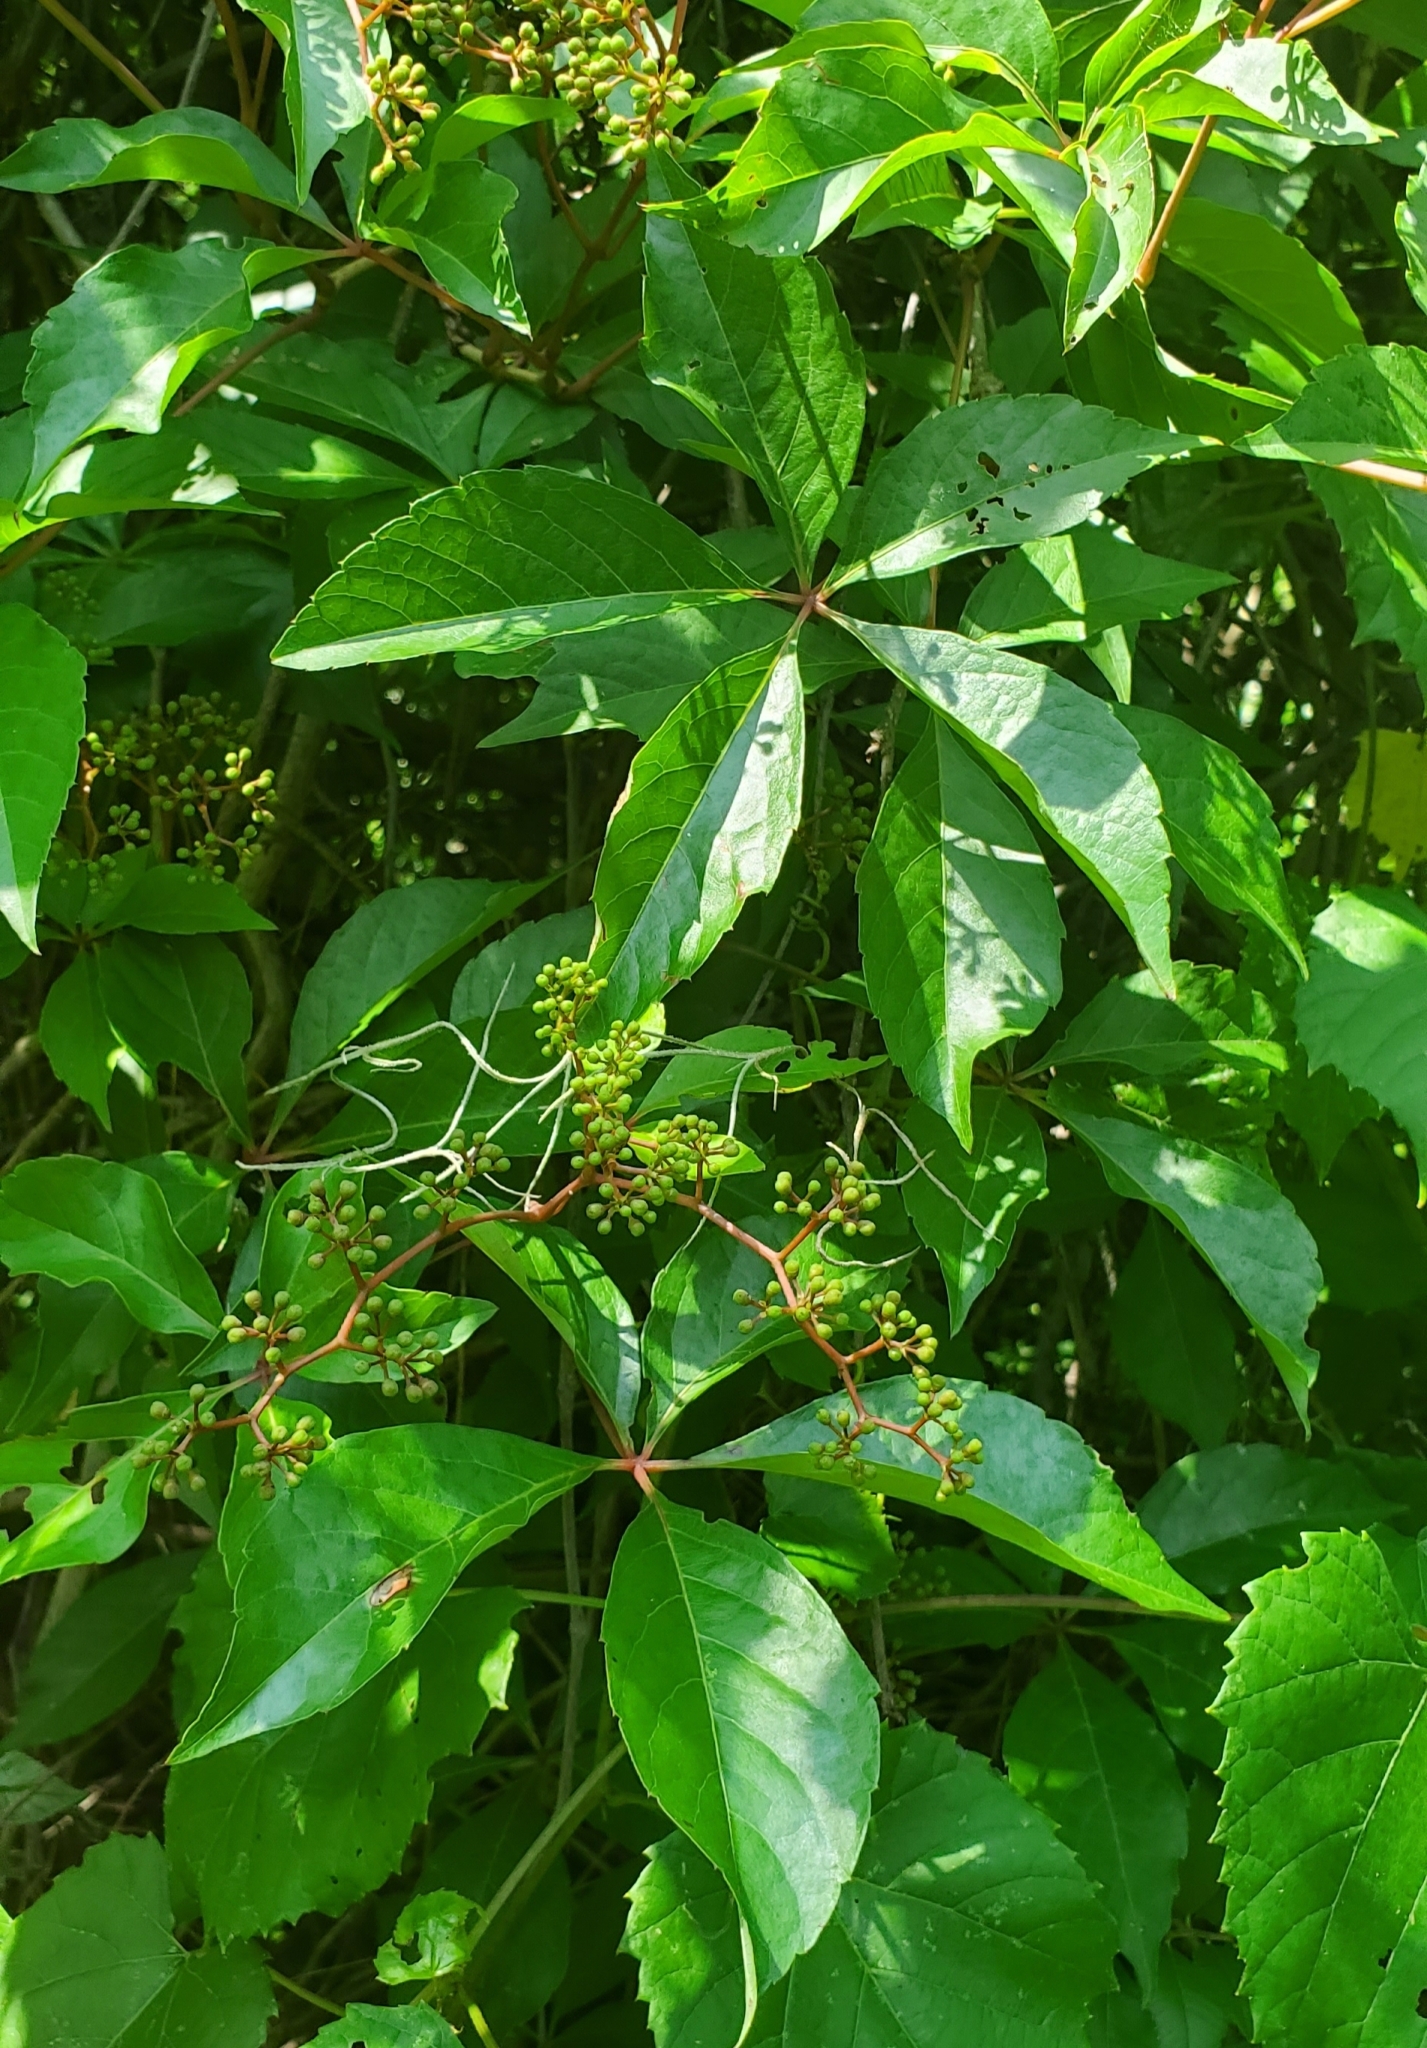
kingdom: Plantae
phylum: Tracheophyta
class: Magnoliopsida
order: Vitales
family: Vitaceae
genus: Parthenocissus
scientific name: Parthenocissus quinquefolia
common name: Virginia-creeper
